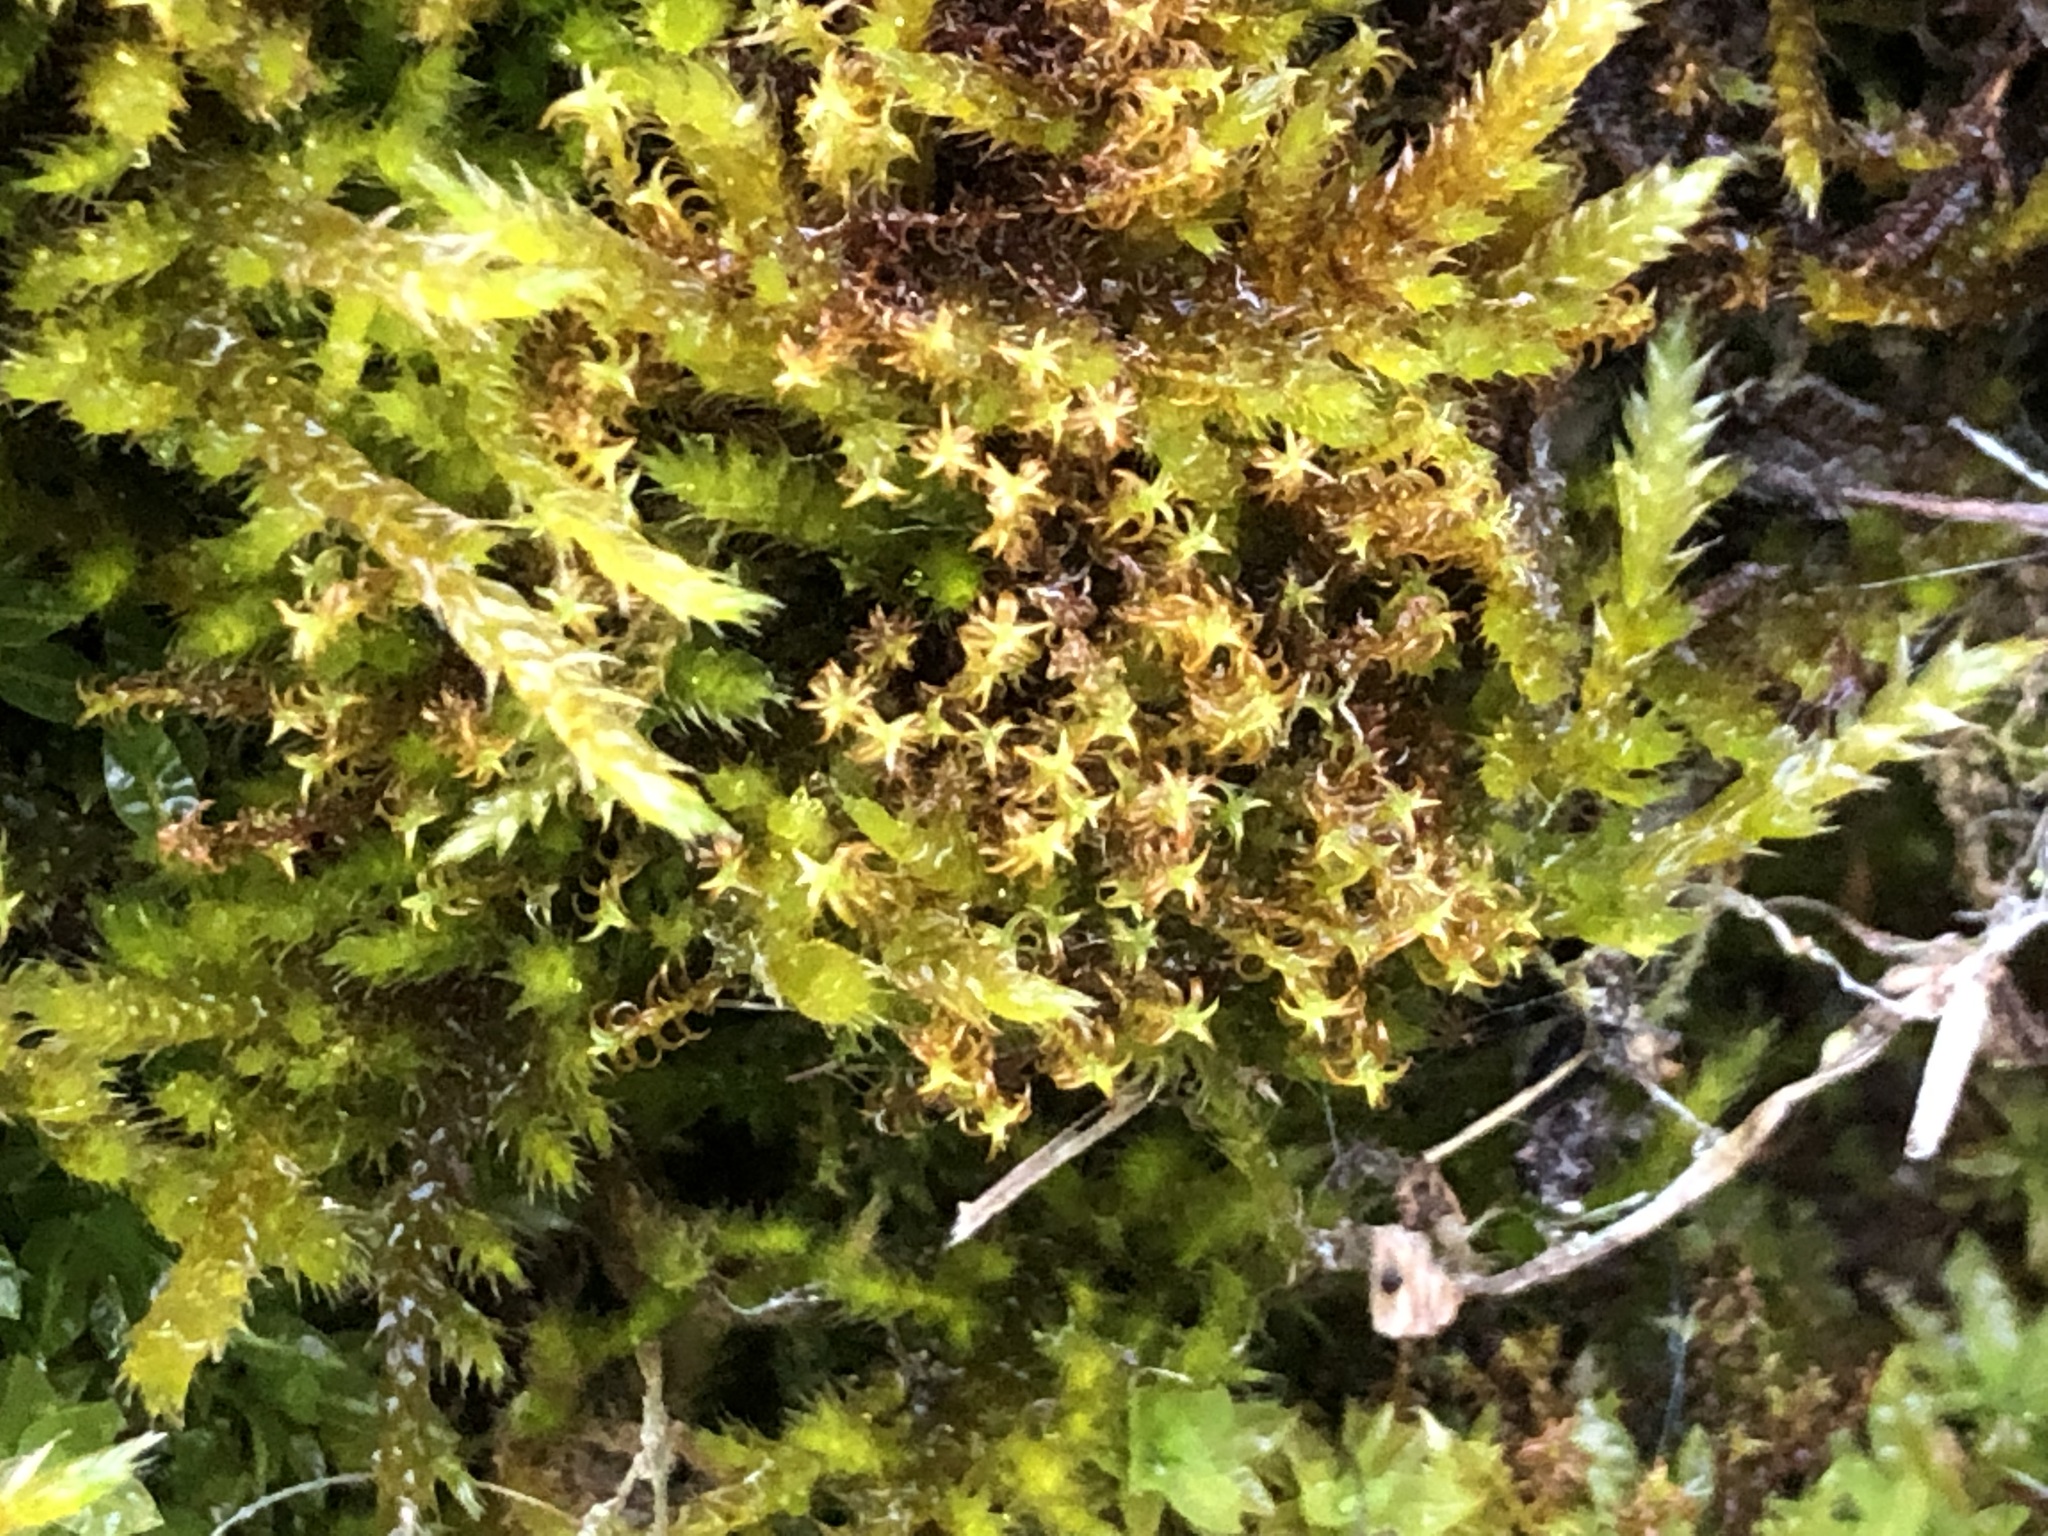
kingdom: Plantae
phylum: Bryophyta
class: Bryopsida
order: Pottiales
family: Pottiaceae
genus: Geheebia
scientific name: Geheebia ferruginea
